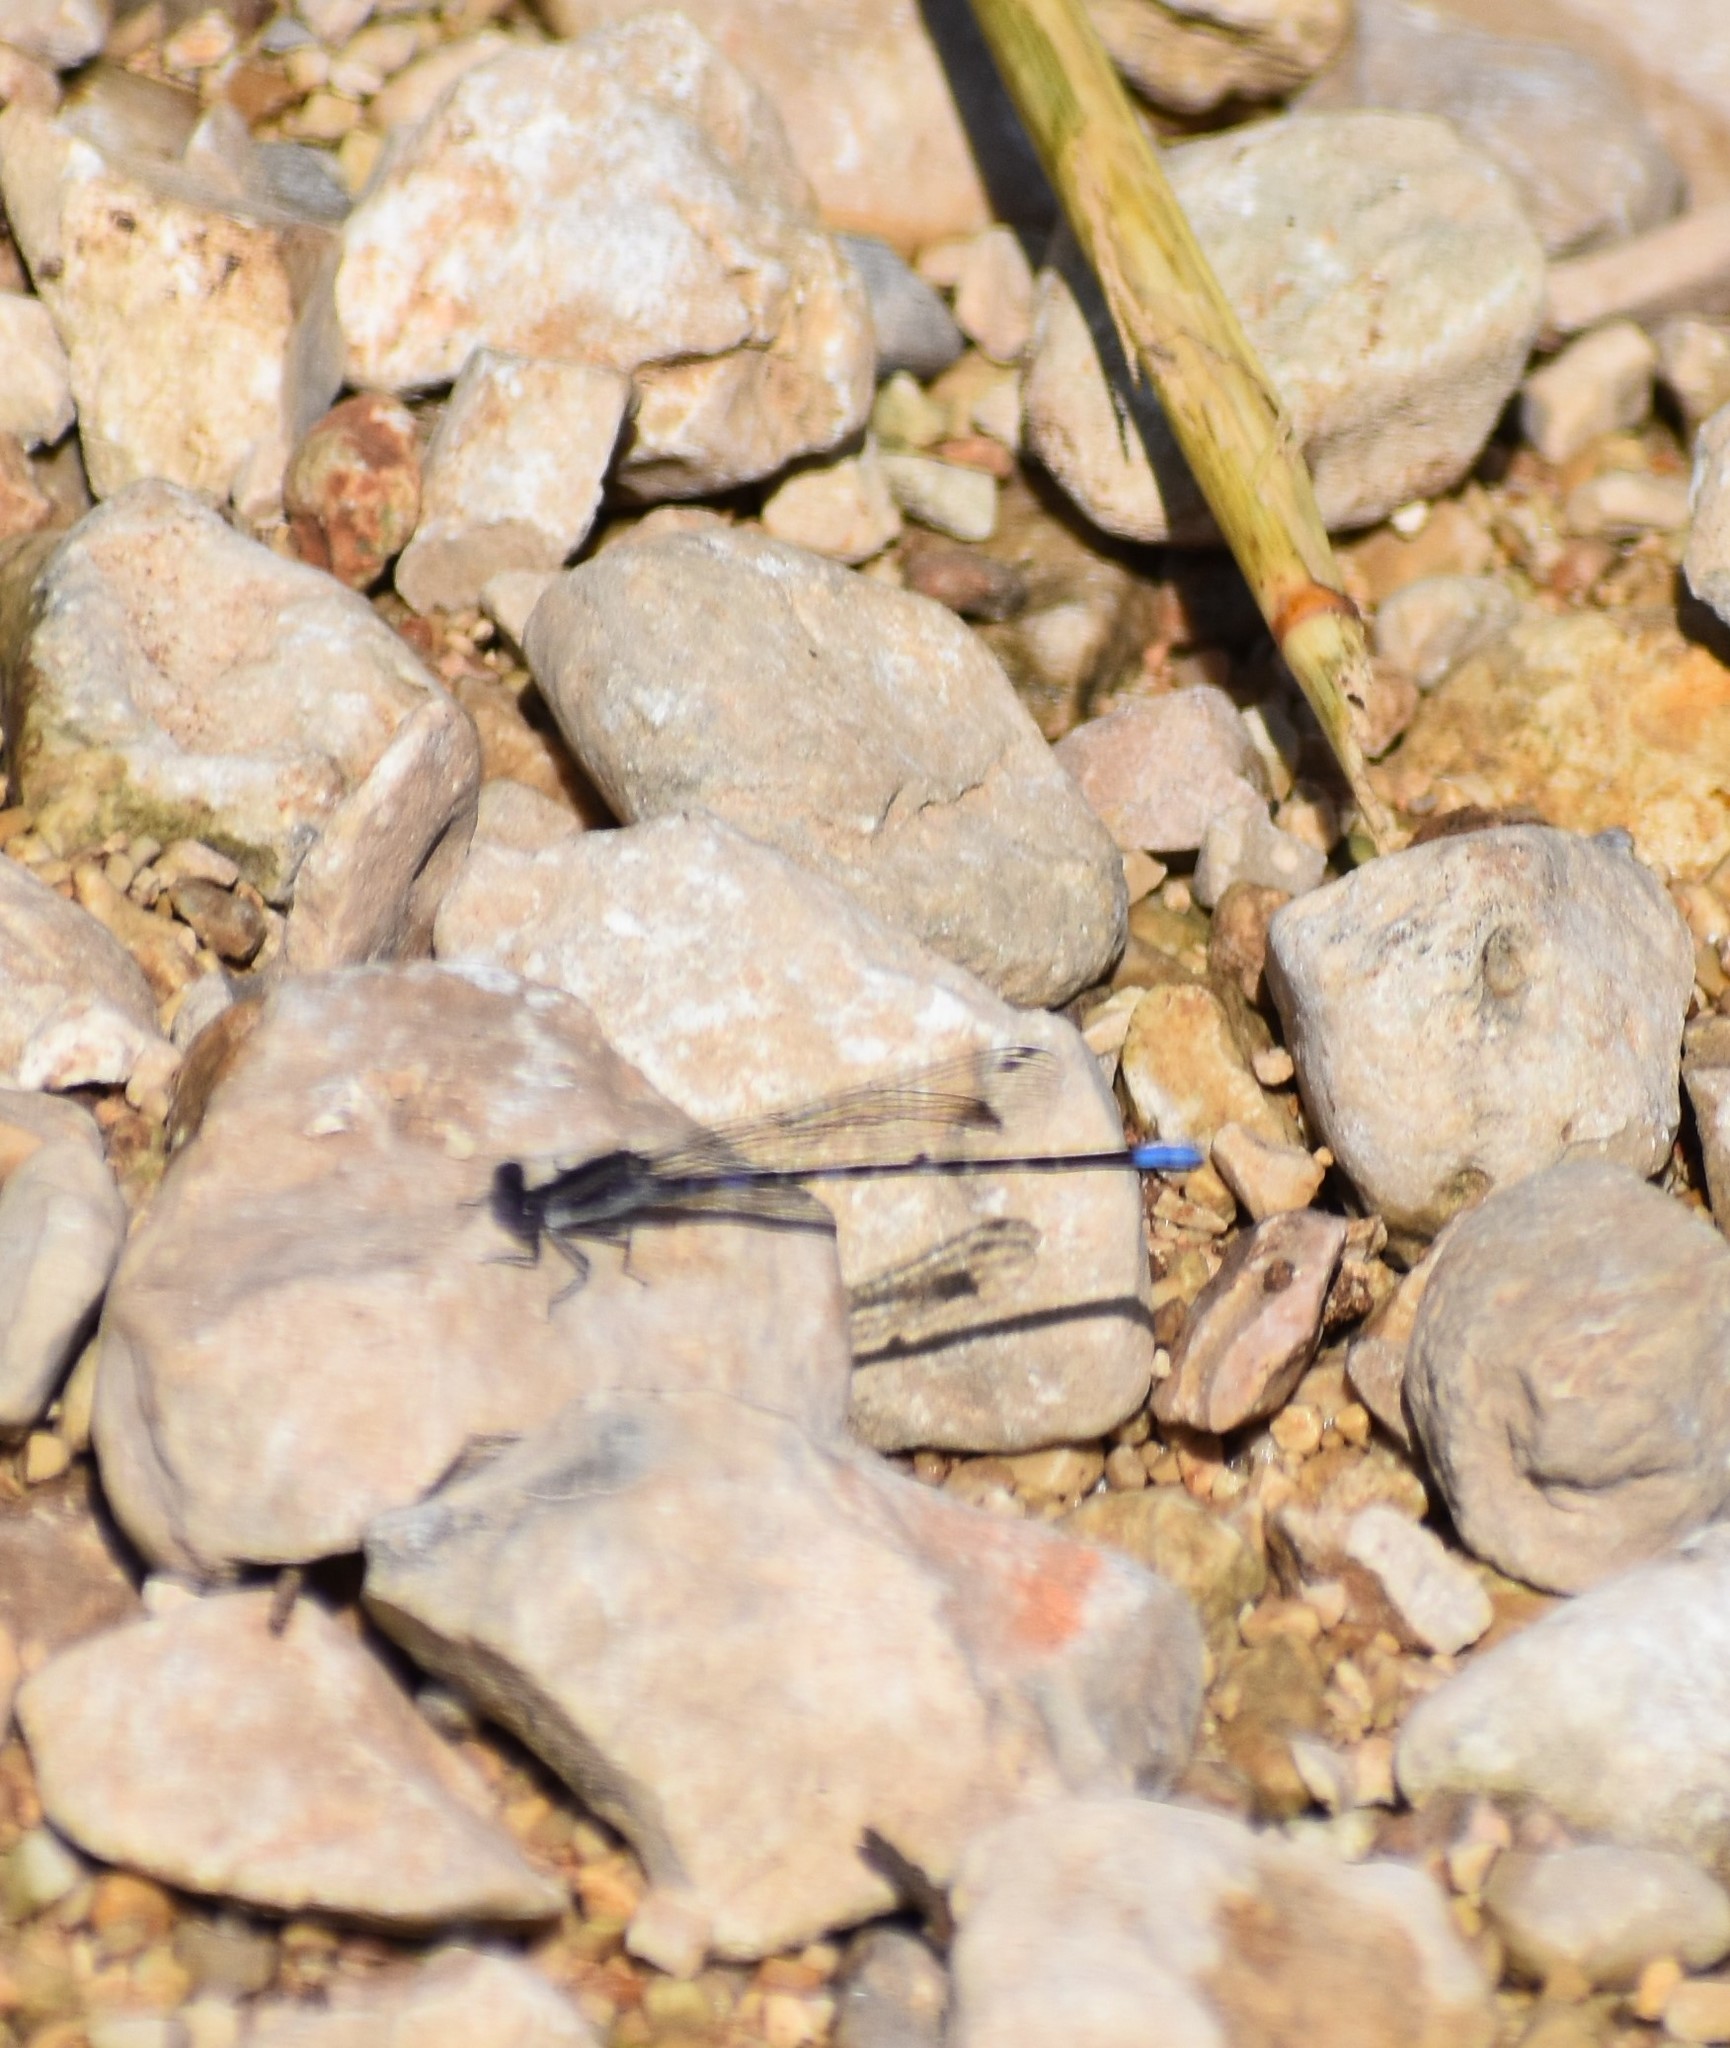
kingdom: Animalia
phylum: Arthropoda
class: Insecta
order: Odonata
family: Coenagrionidae
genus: Argia
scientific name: Argia immunda
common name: Kiowa dancer
